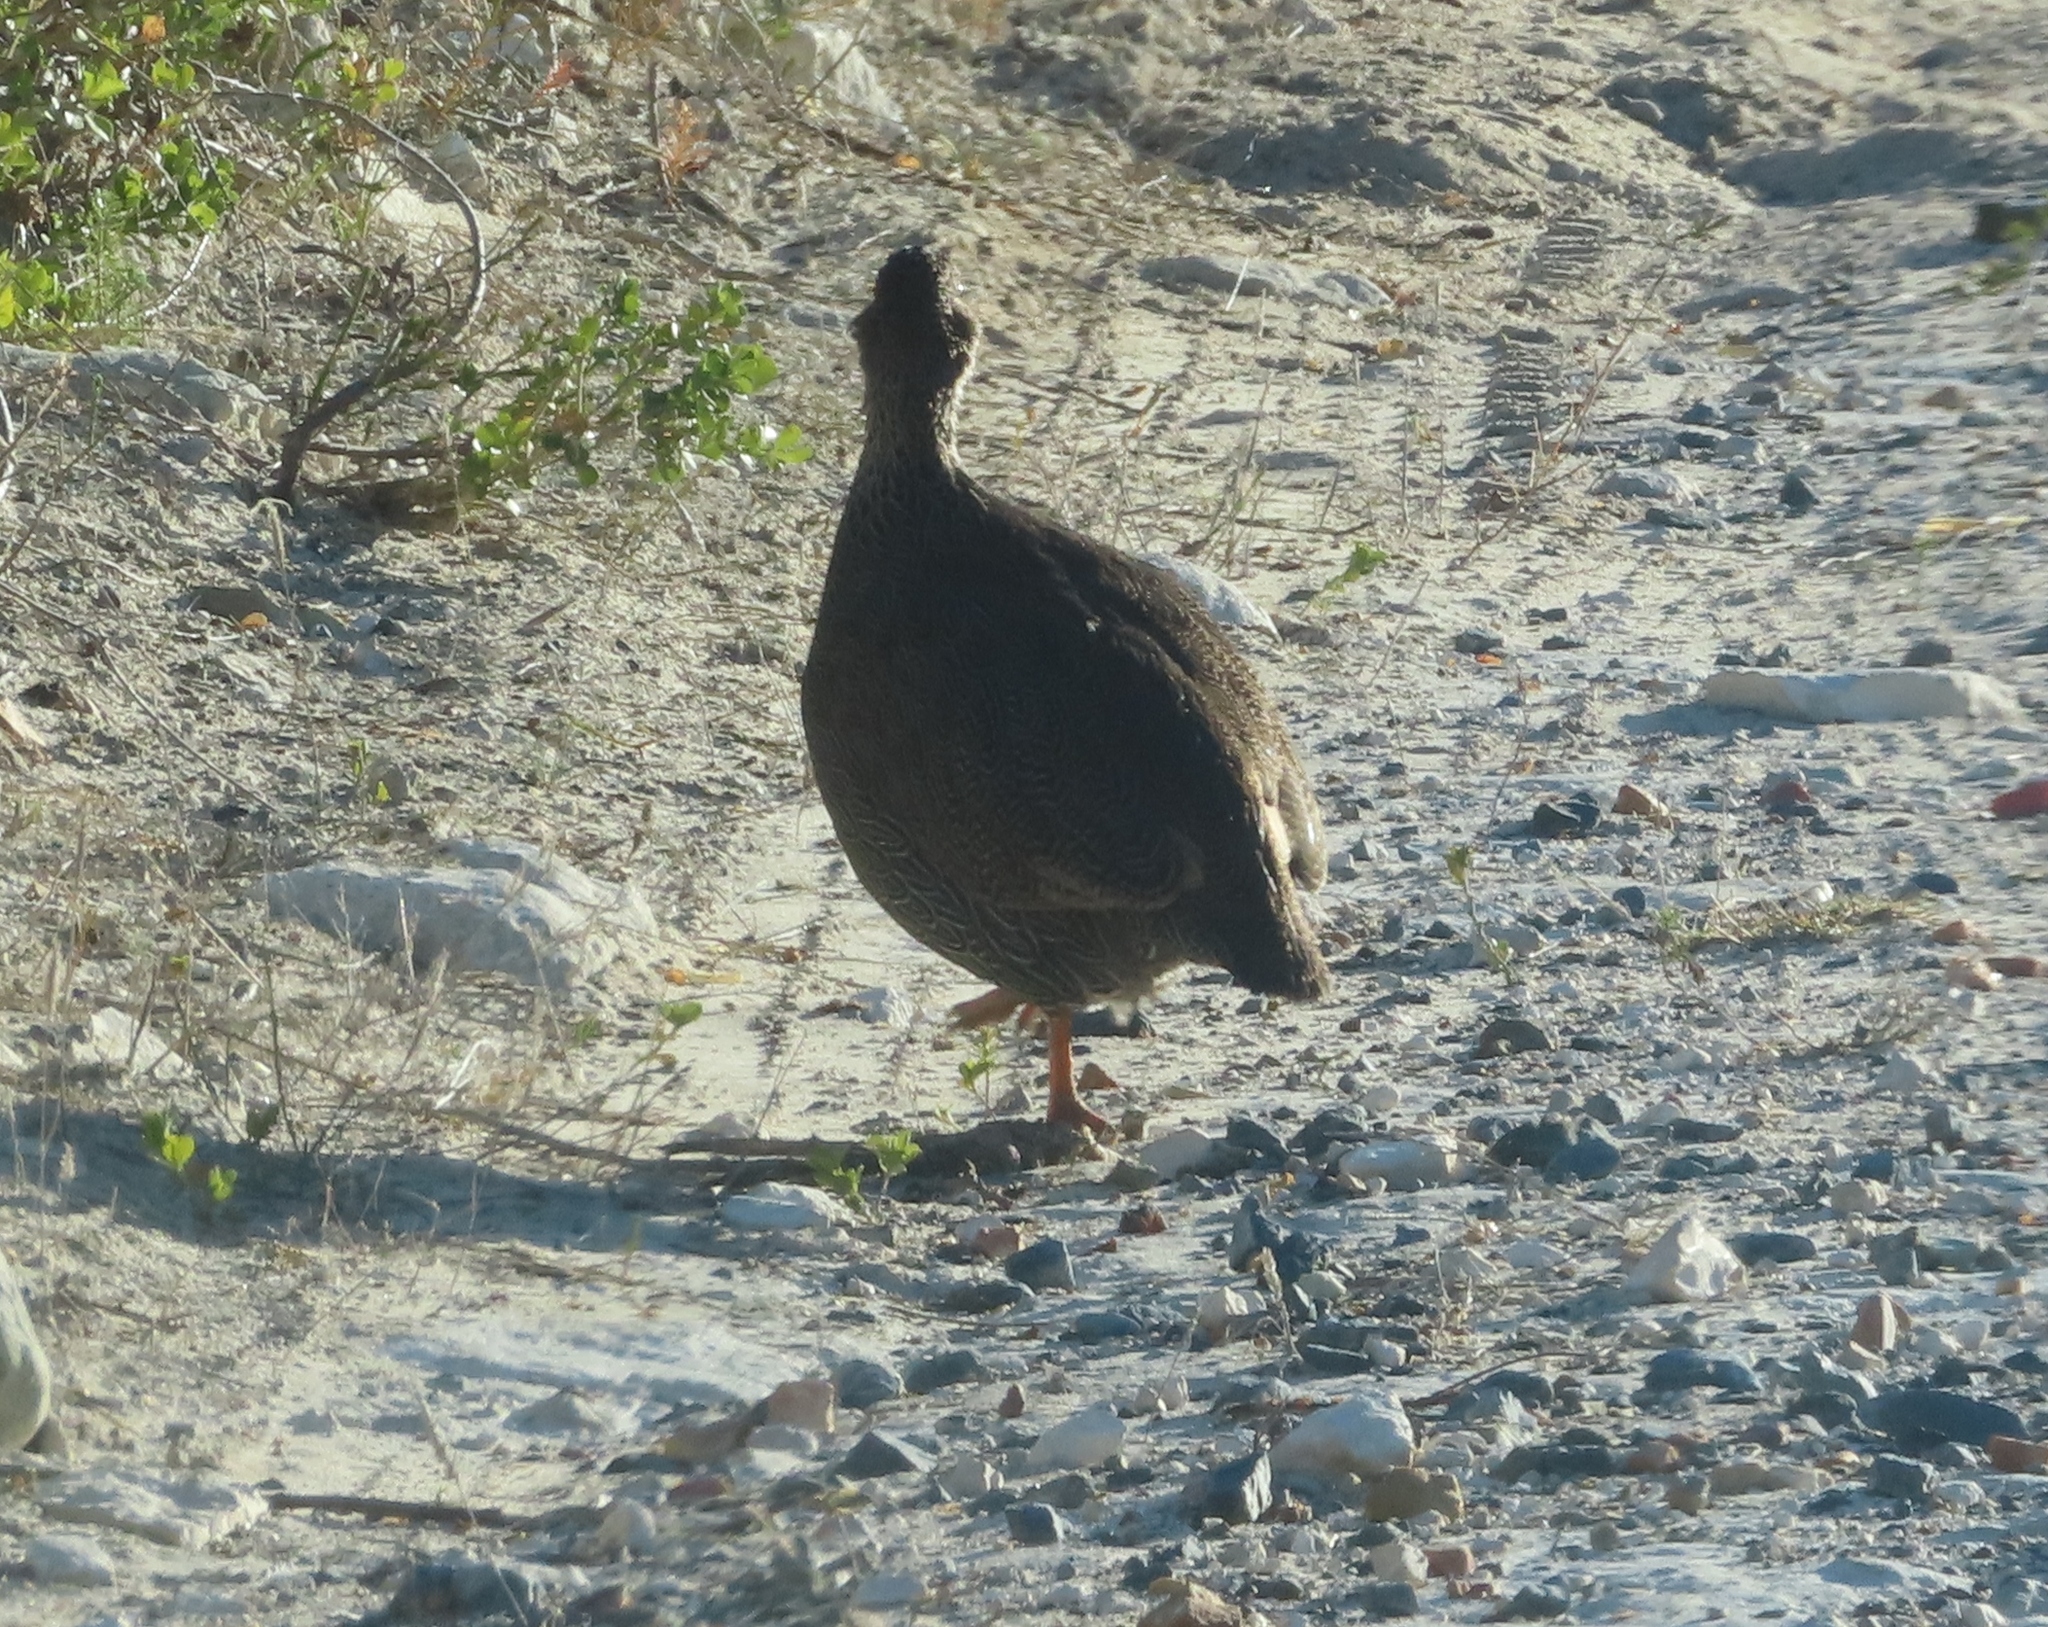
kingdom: Animalia
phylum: Chordata
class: Aves
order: Galliformes
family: Phasianidae
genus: Pternistis
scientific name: Pternistis capensis
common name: Cape spurfowl
